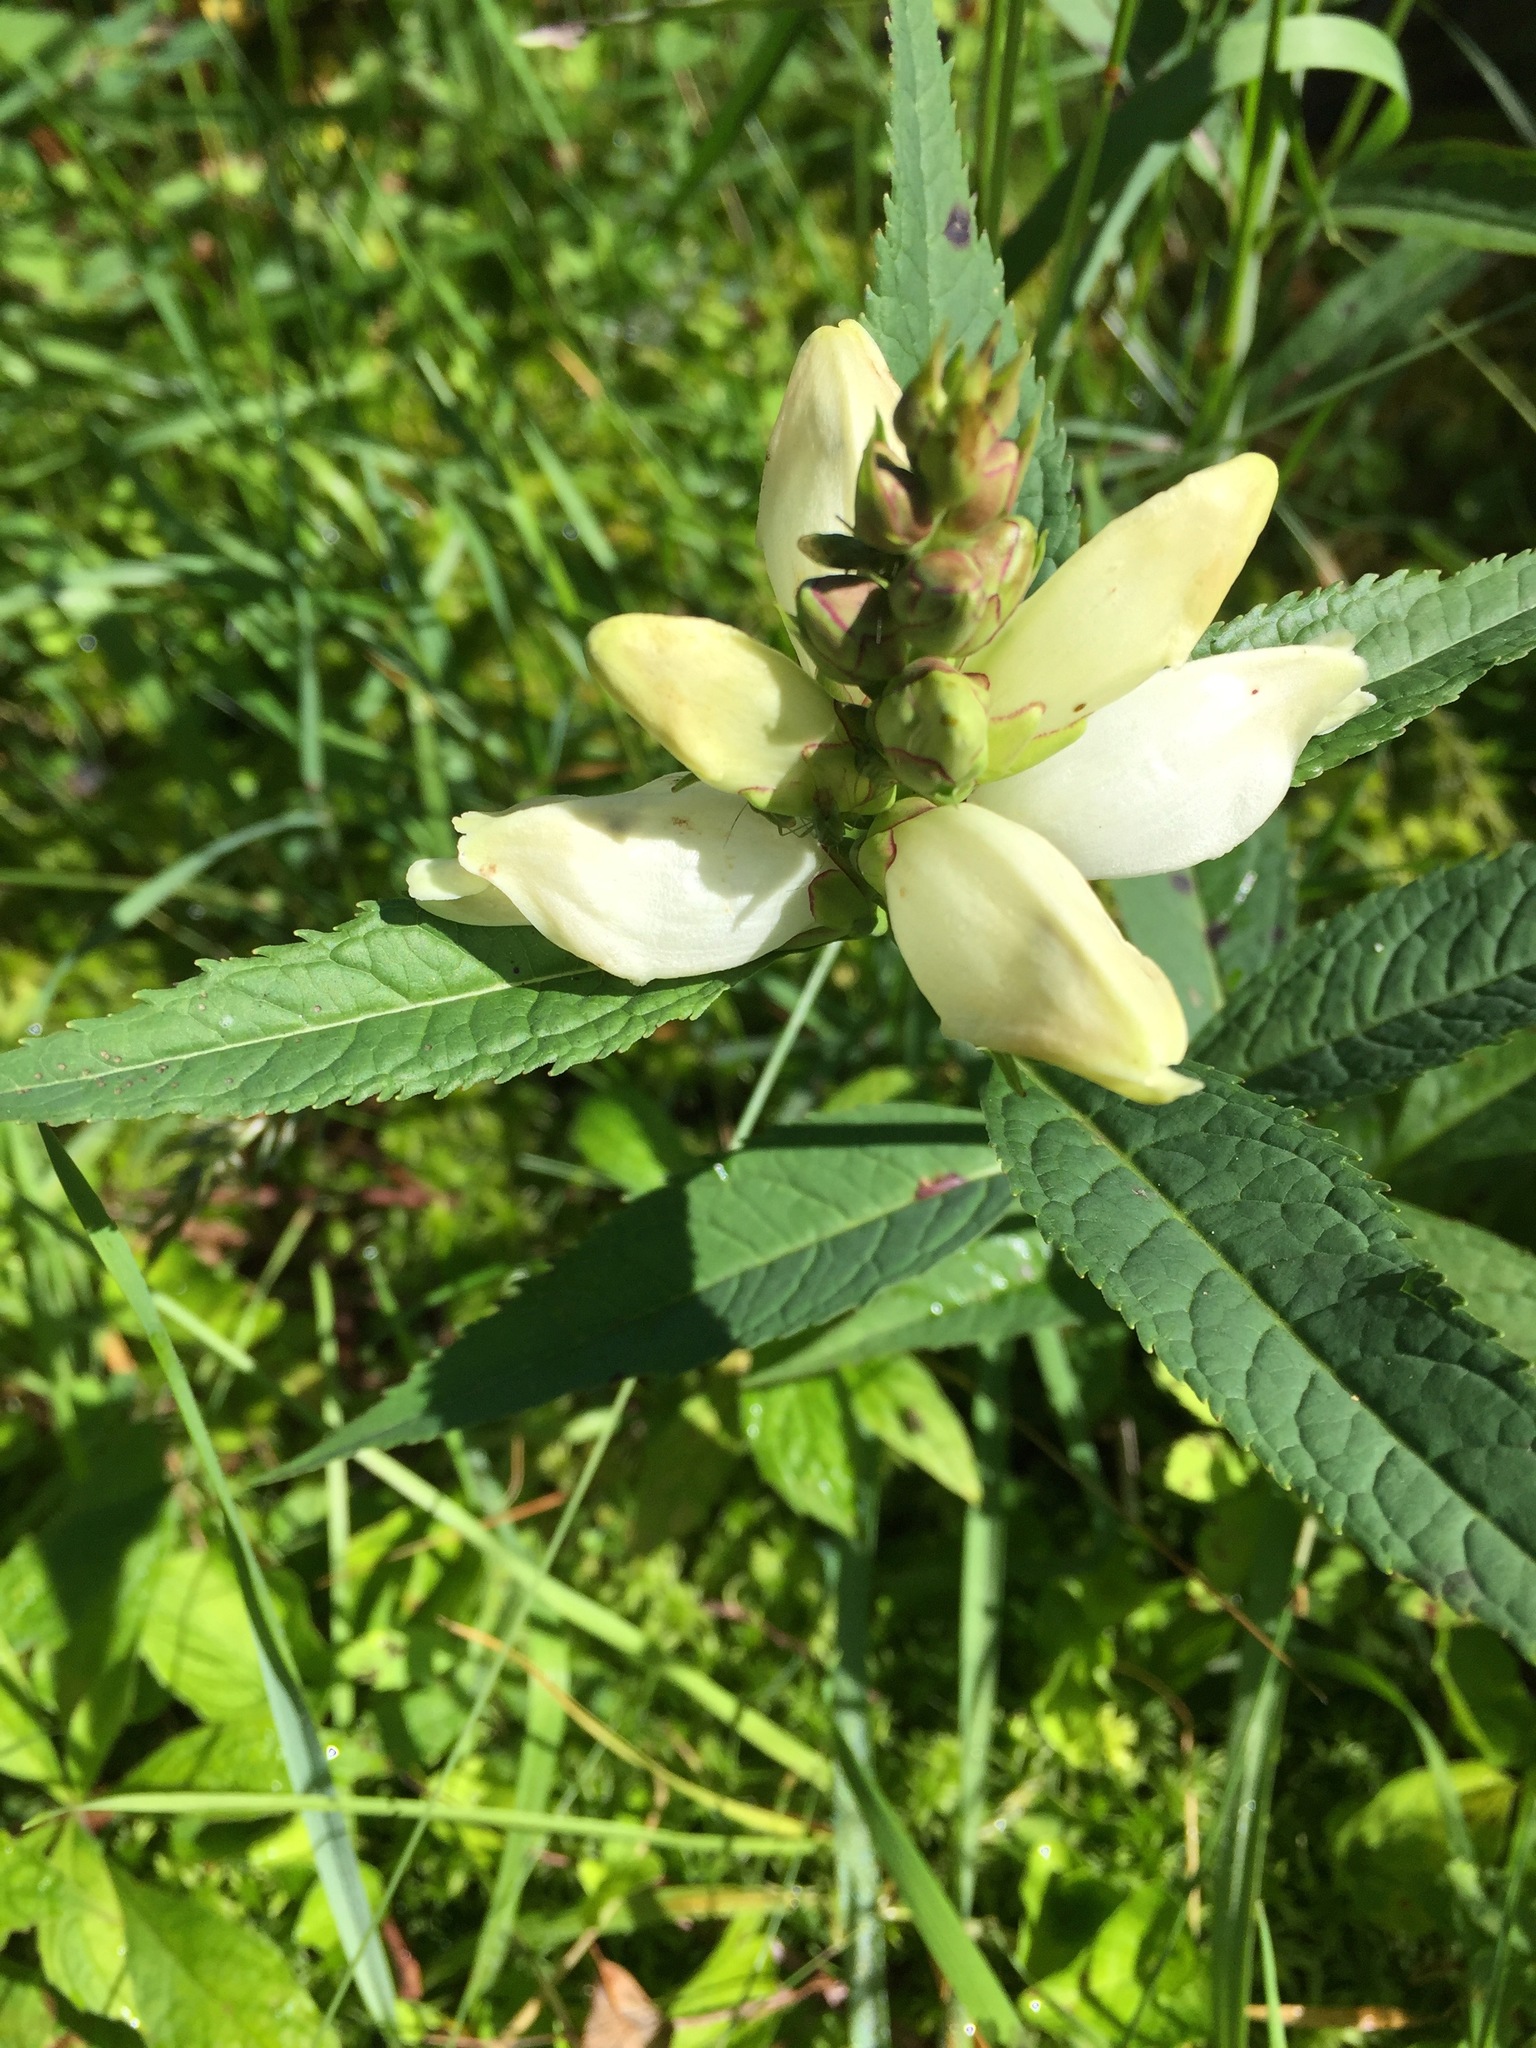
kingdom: Plantae
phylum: Tracheophyta
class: Magnoliopsida
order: Lamiales
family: Plantaginaceae
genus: Chelone
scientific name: Chelone glabra
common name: Snakehead
